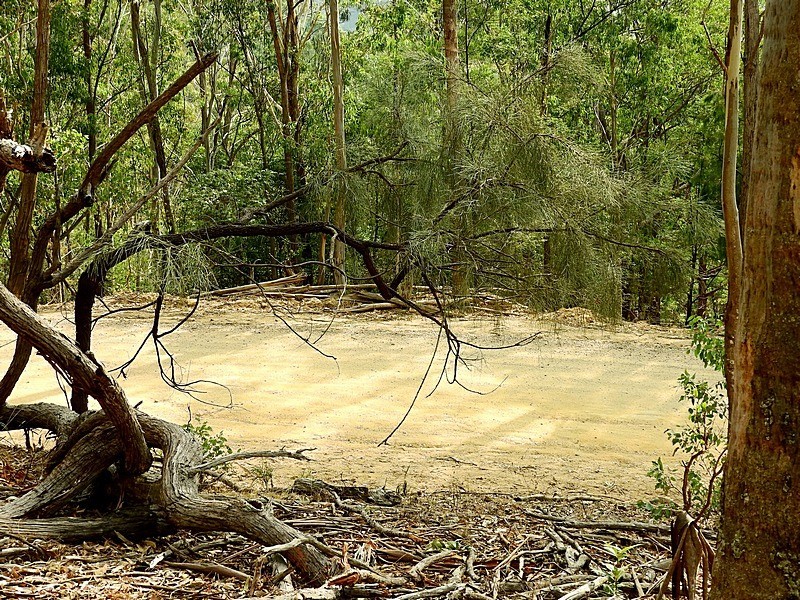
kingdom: Plantae
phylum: Tracheophyta
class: Magnoliopsida
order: Fabales
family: Fabaceae
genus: Jacksonia
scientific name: Jacksonia scoparia
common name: Dogwood
